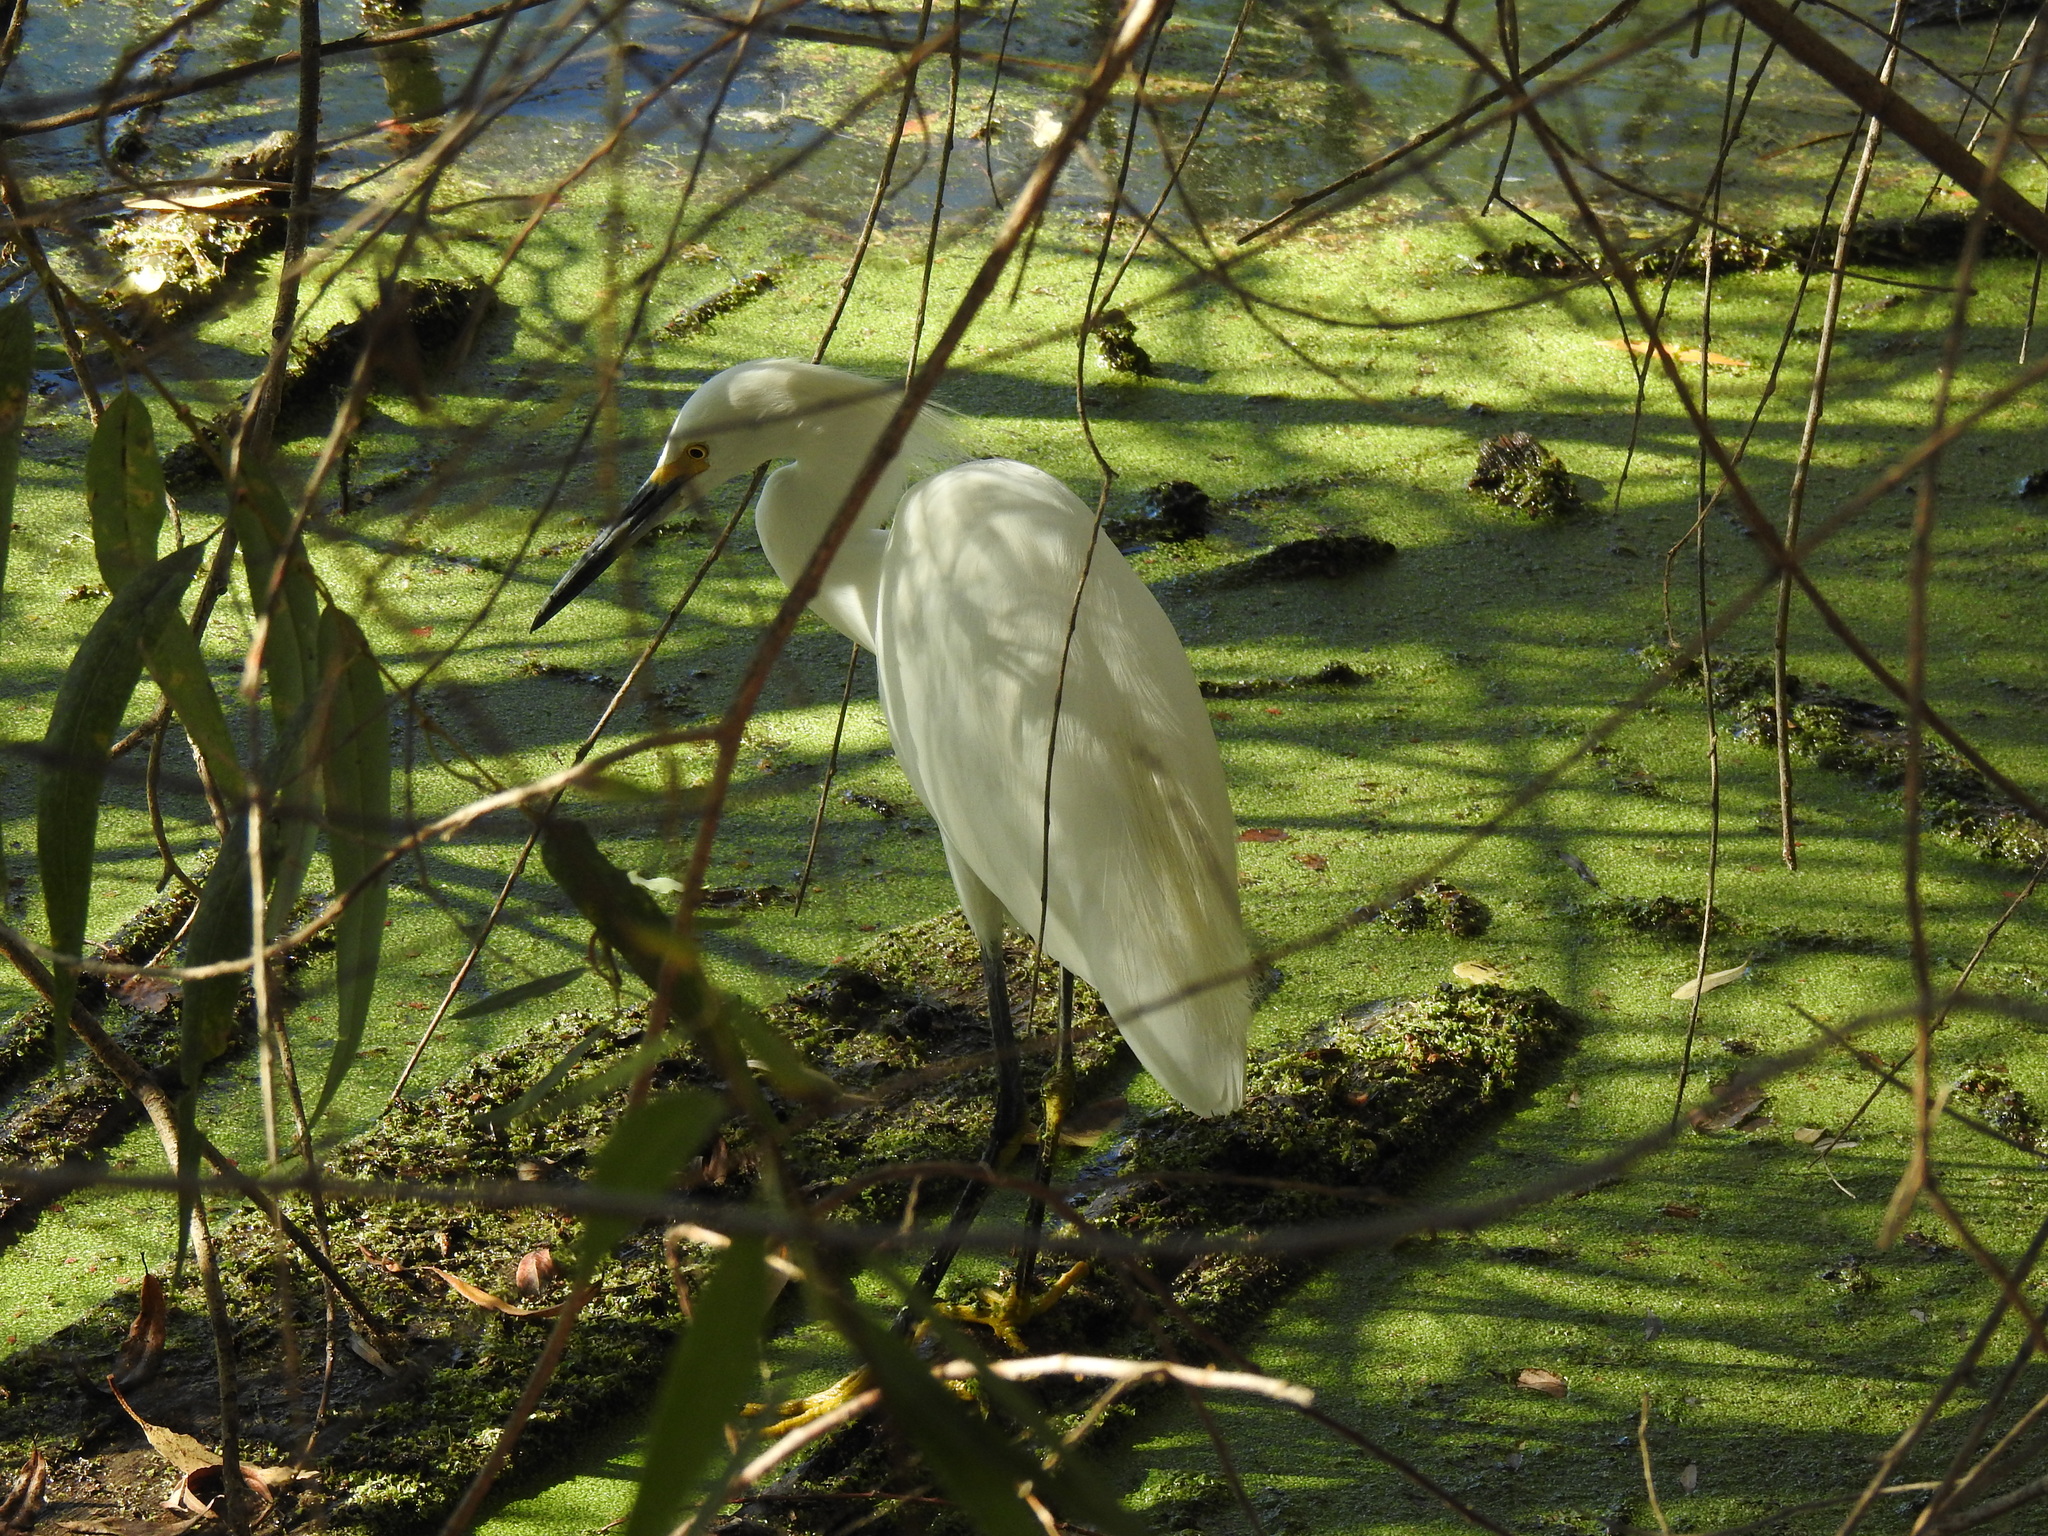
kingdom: Animalia
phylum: Chordata
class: Aves
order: Pelecaniformes
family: Ardeidae
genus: Egretta
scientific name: Egretta thula
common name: Snowy egret
